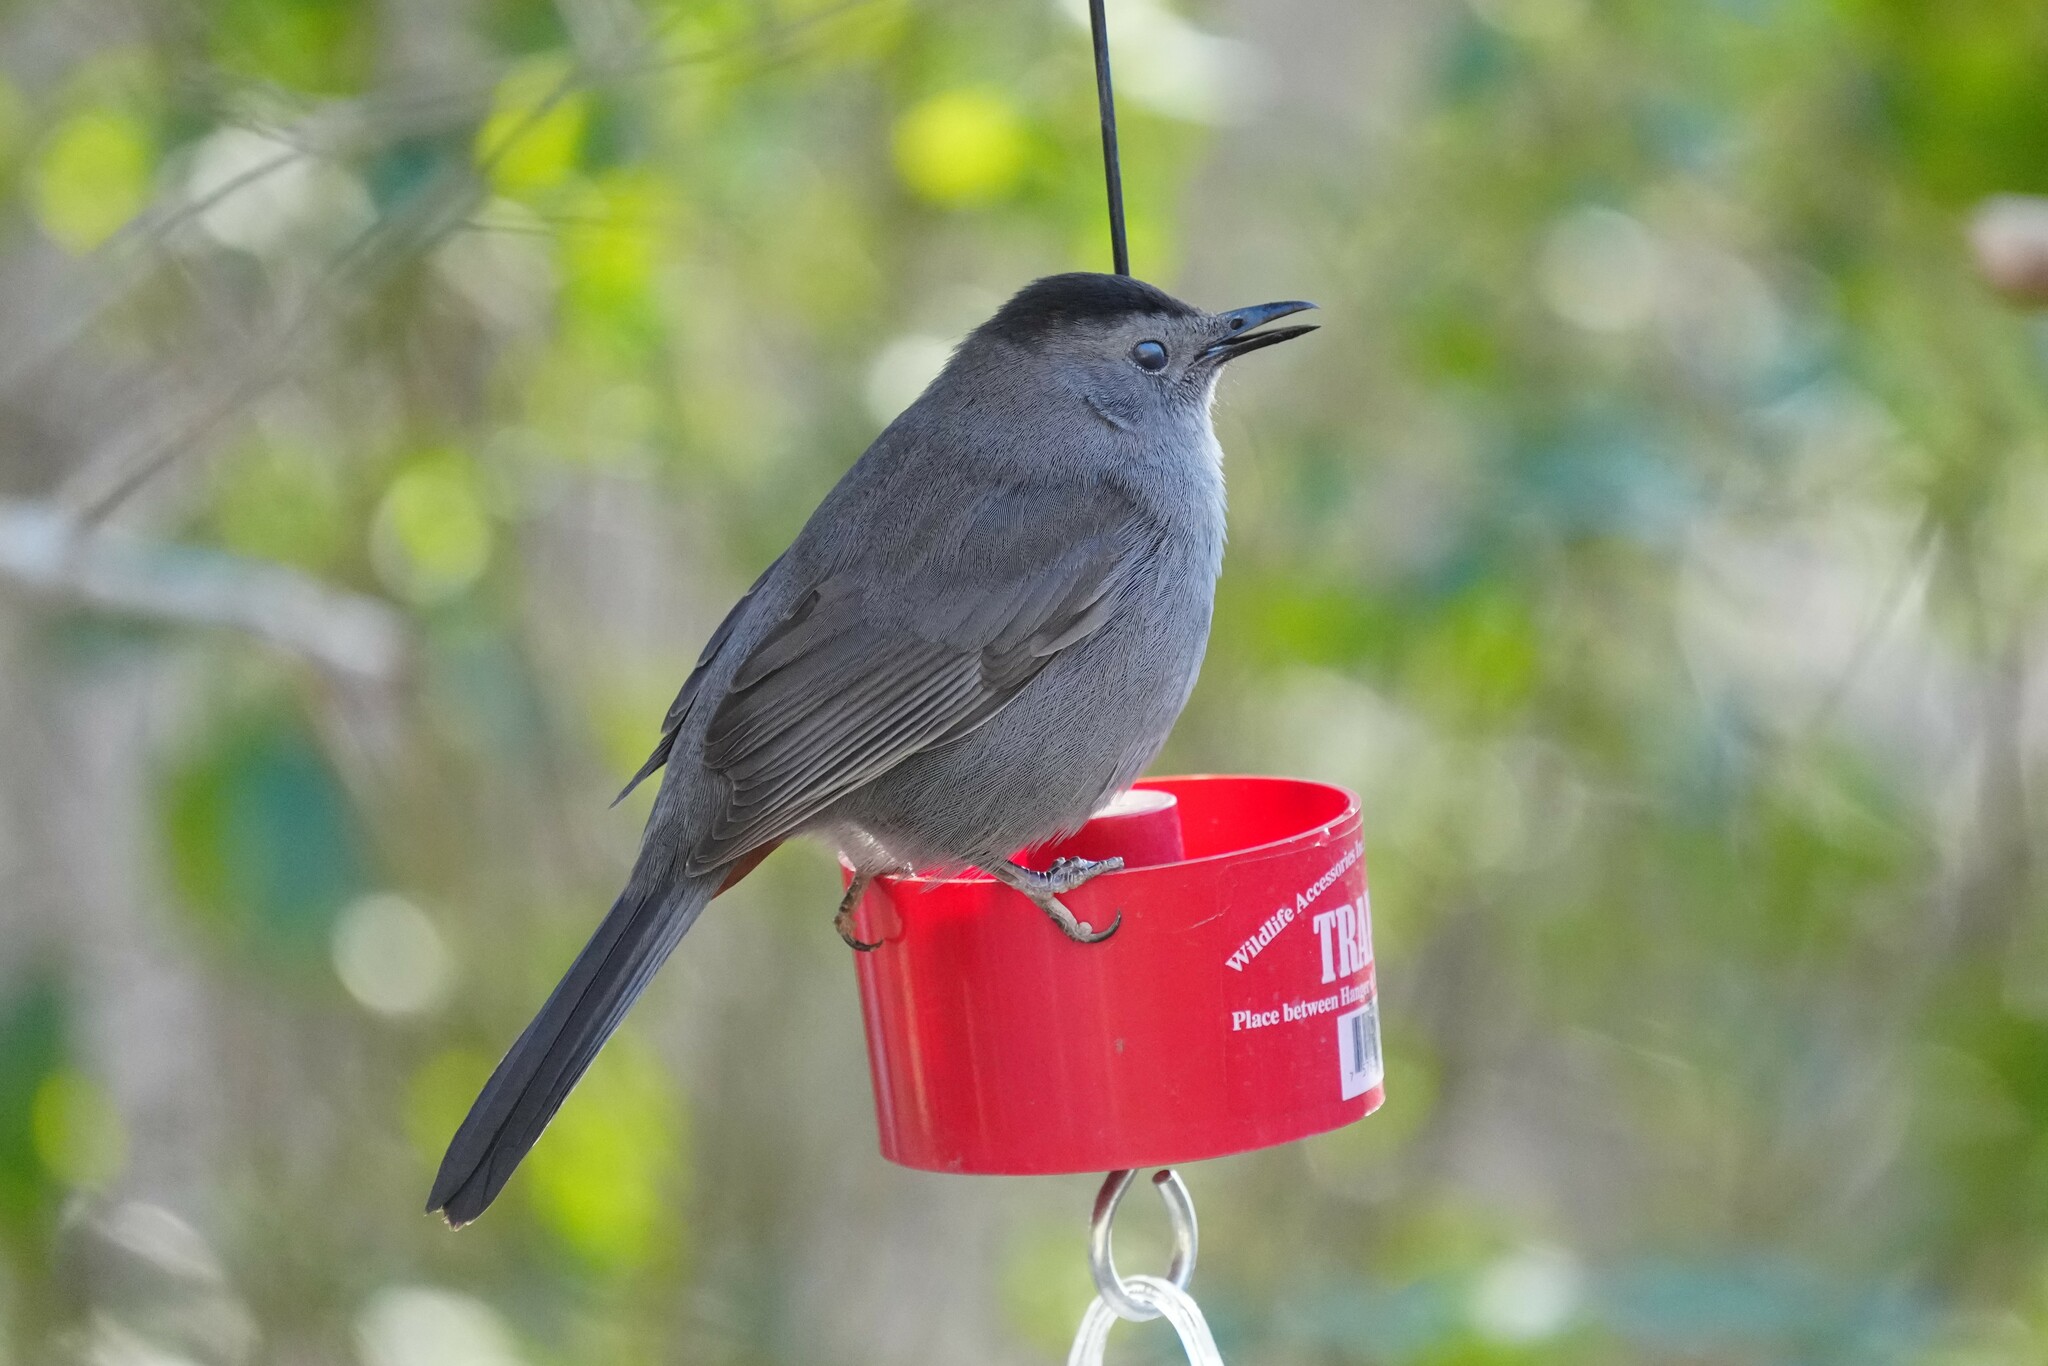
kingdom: Animalia
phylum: Chordata
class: Aves
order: Passeriformes
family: Mimidae
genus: Dumetella
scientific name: Dumetella carolinensis
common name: Gray catbird
